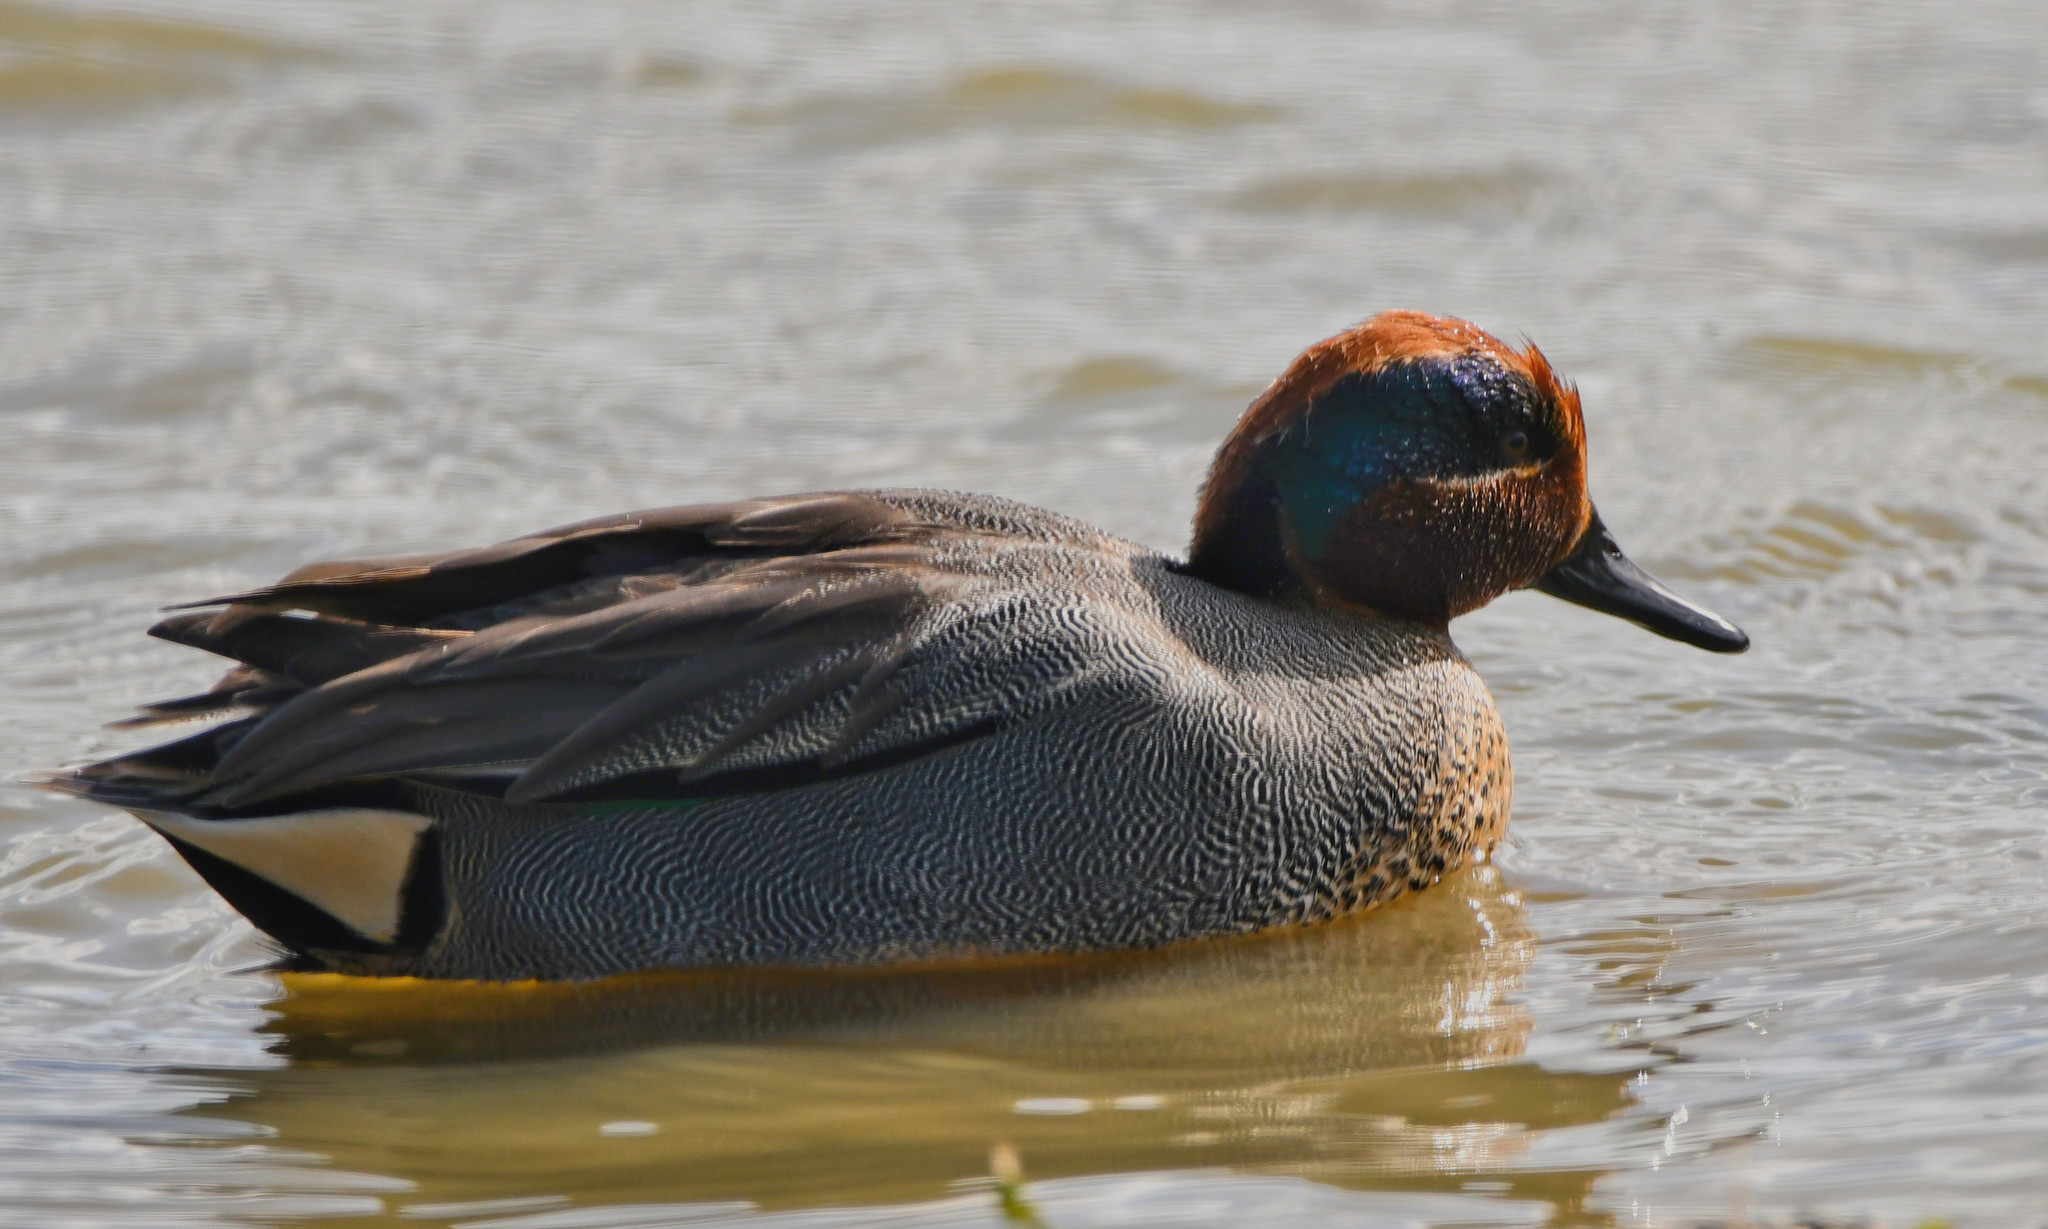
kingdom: Animalia
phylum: Chordata
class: Aves
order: Anseriformes
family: Anatidae
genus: Anas
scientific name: Anas crecca
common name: Eurasian teal
